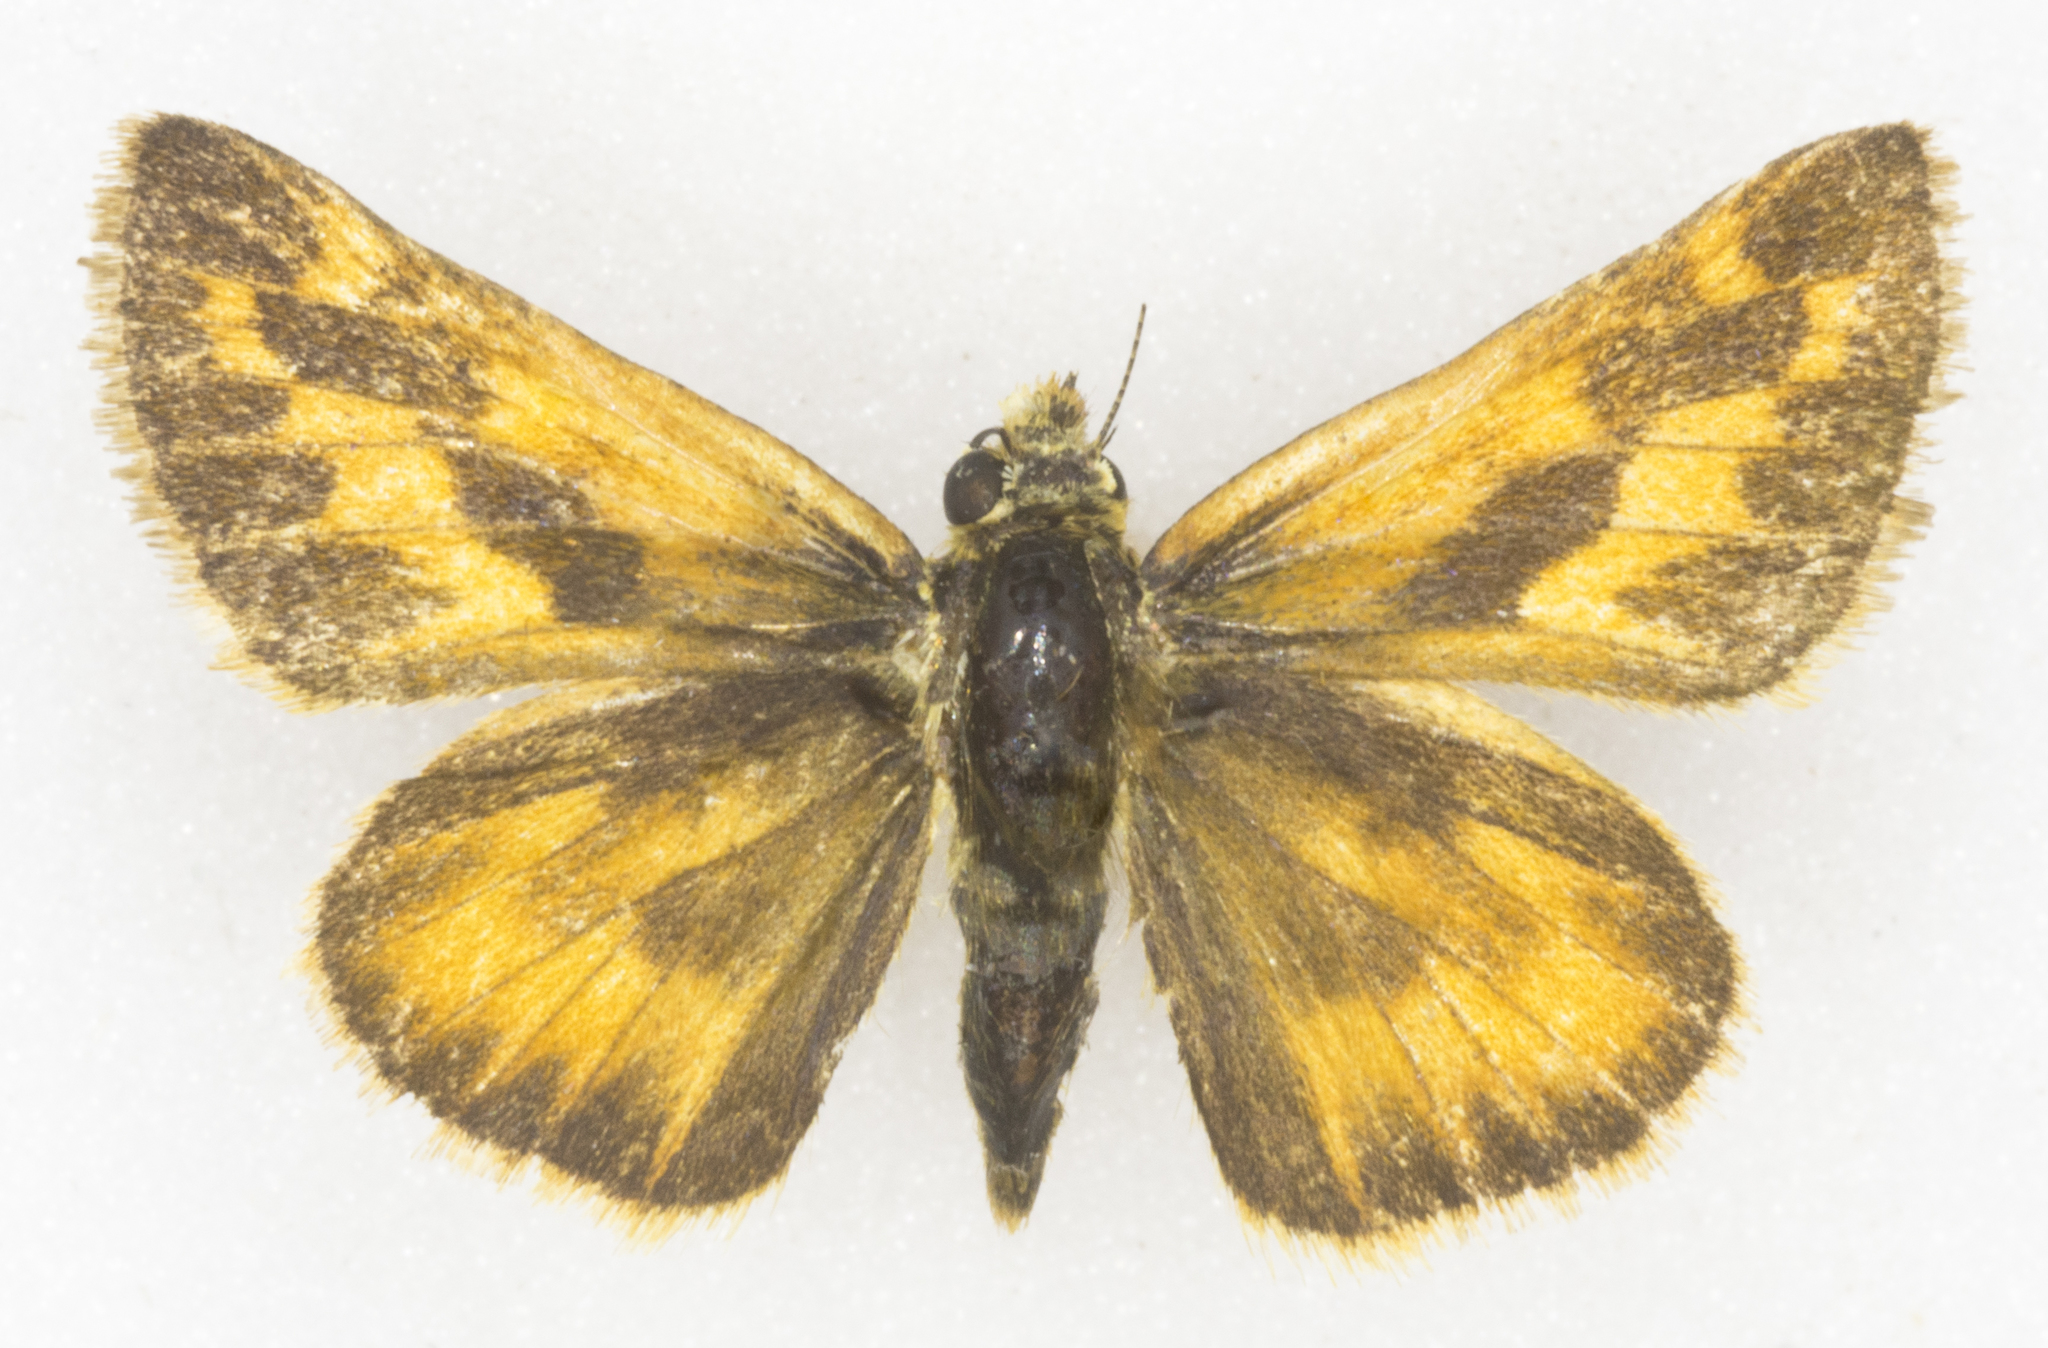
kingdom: Animalia
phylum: Arthropoda
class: Insecta
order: Lepidoptera
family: Hesperiidae
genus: Ochlodes
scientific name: Ochlodes sylvanoides
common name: Woodland skipper
